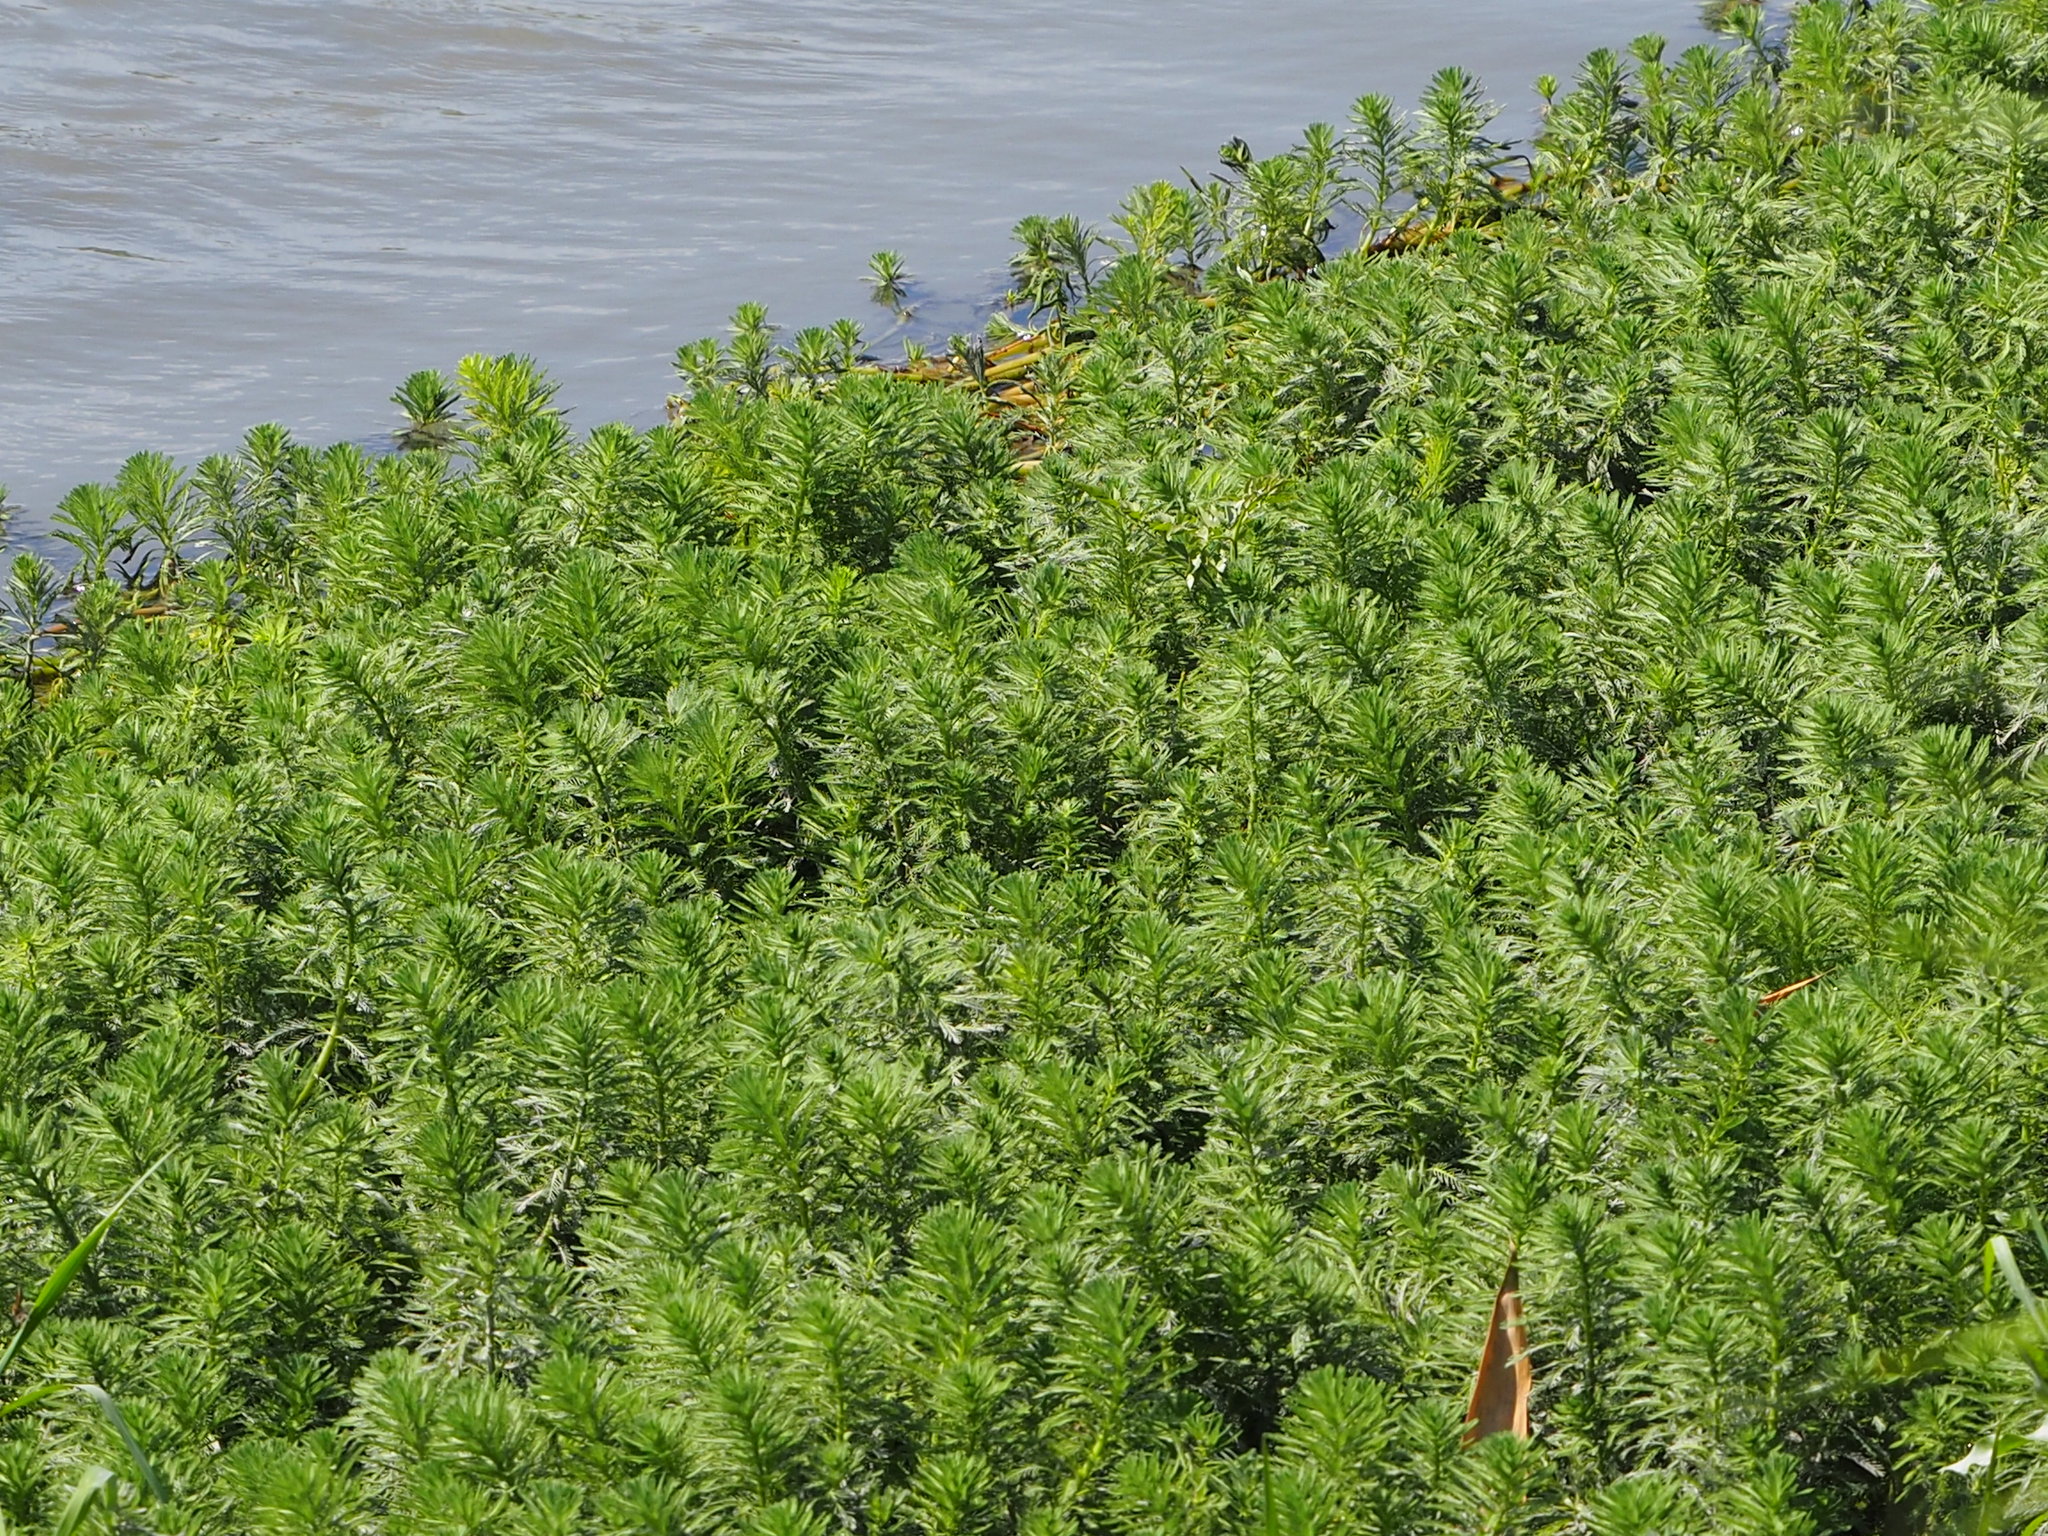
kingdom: Plantae
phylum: Tracheophyta
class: Magnoliopsida
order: Saxifragales
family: Haloragaceae
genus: Myriophyllum
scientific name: Myriophyllum aquaticum
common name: Parrot's feather
